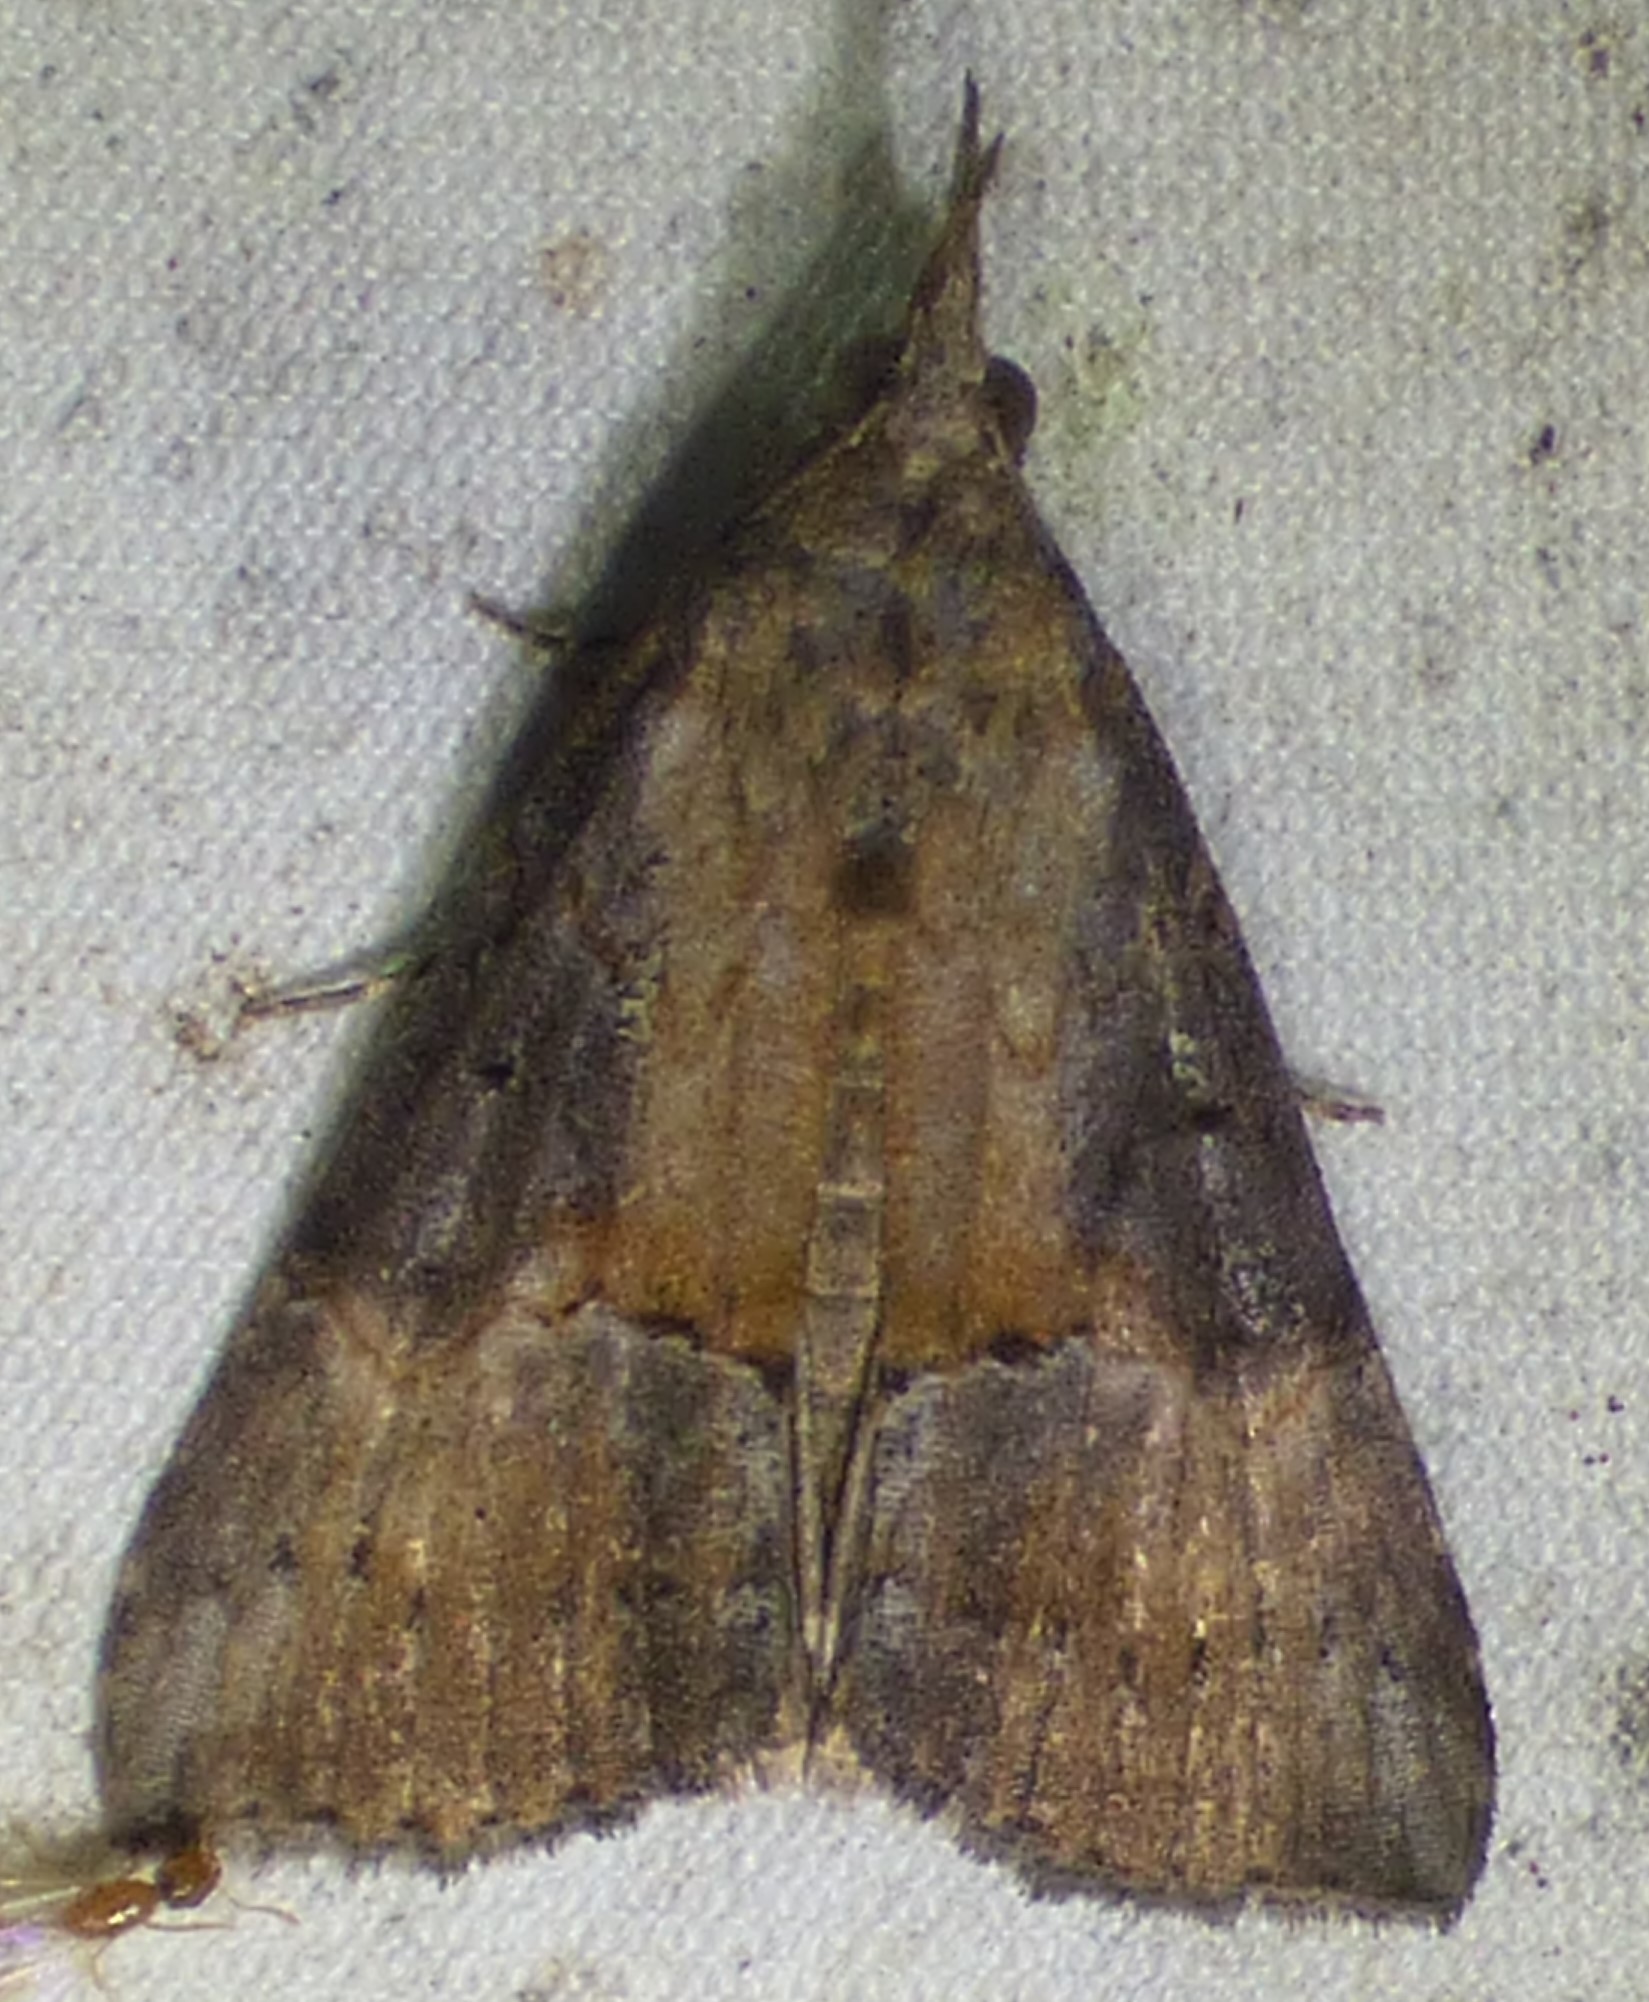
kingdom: Animalia
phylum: Arthropoda
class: Insecta
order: Lepidoptera
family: Erebidae
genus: Hypena
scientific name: Hypena scabra
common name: Green cloverworm
